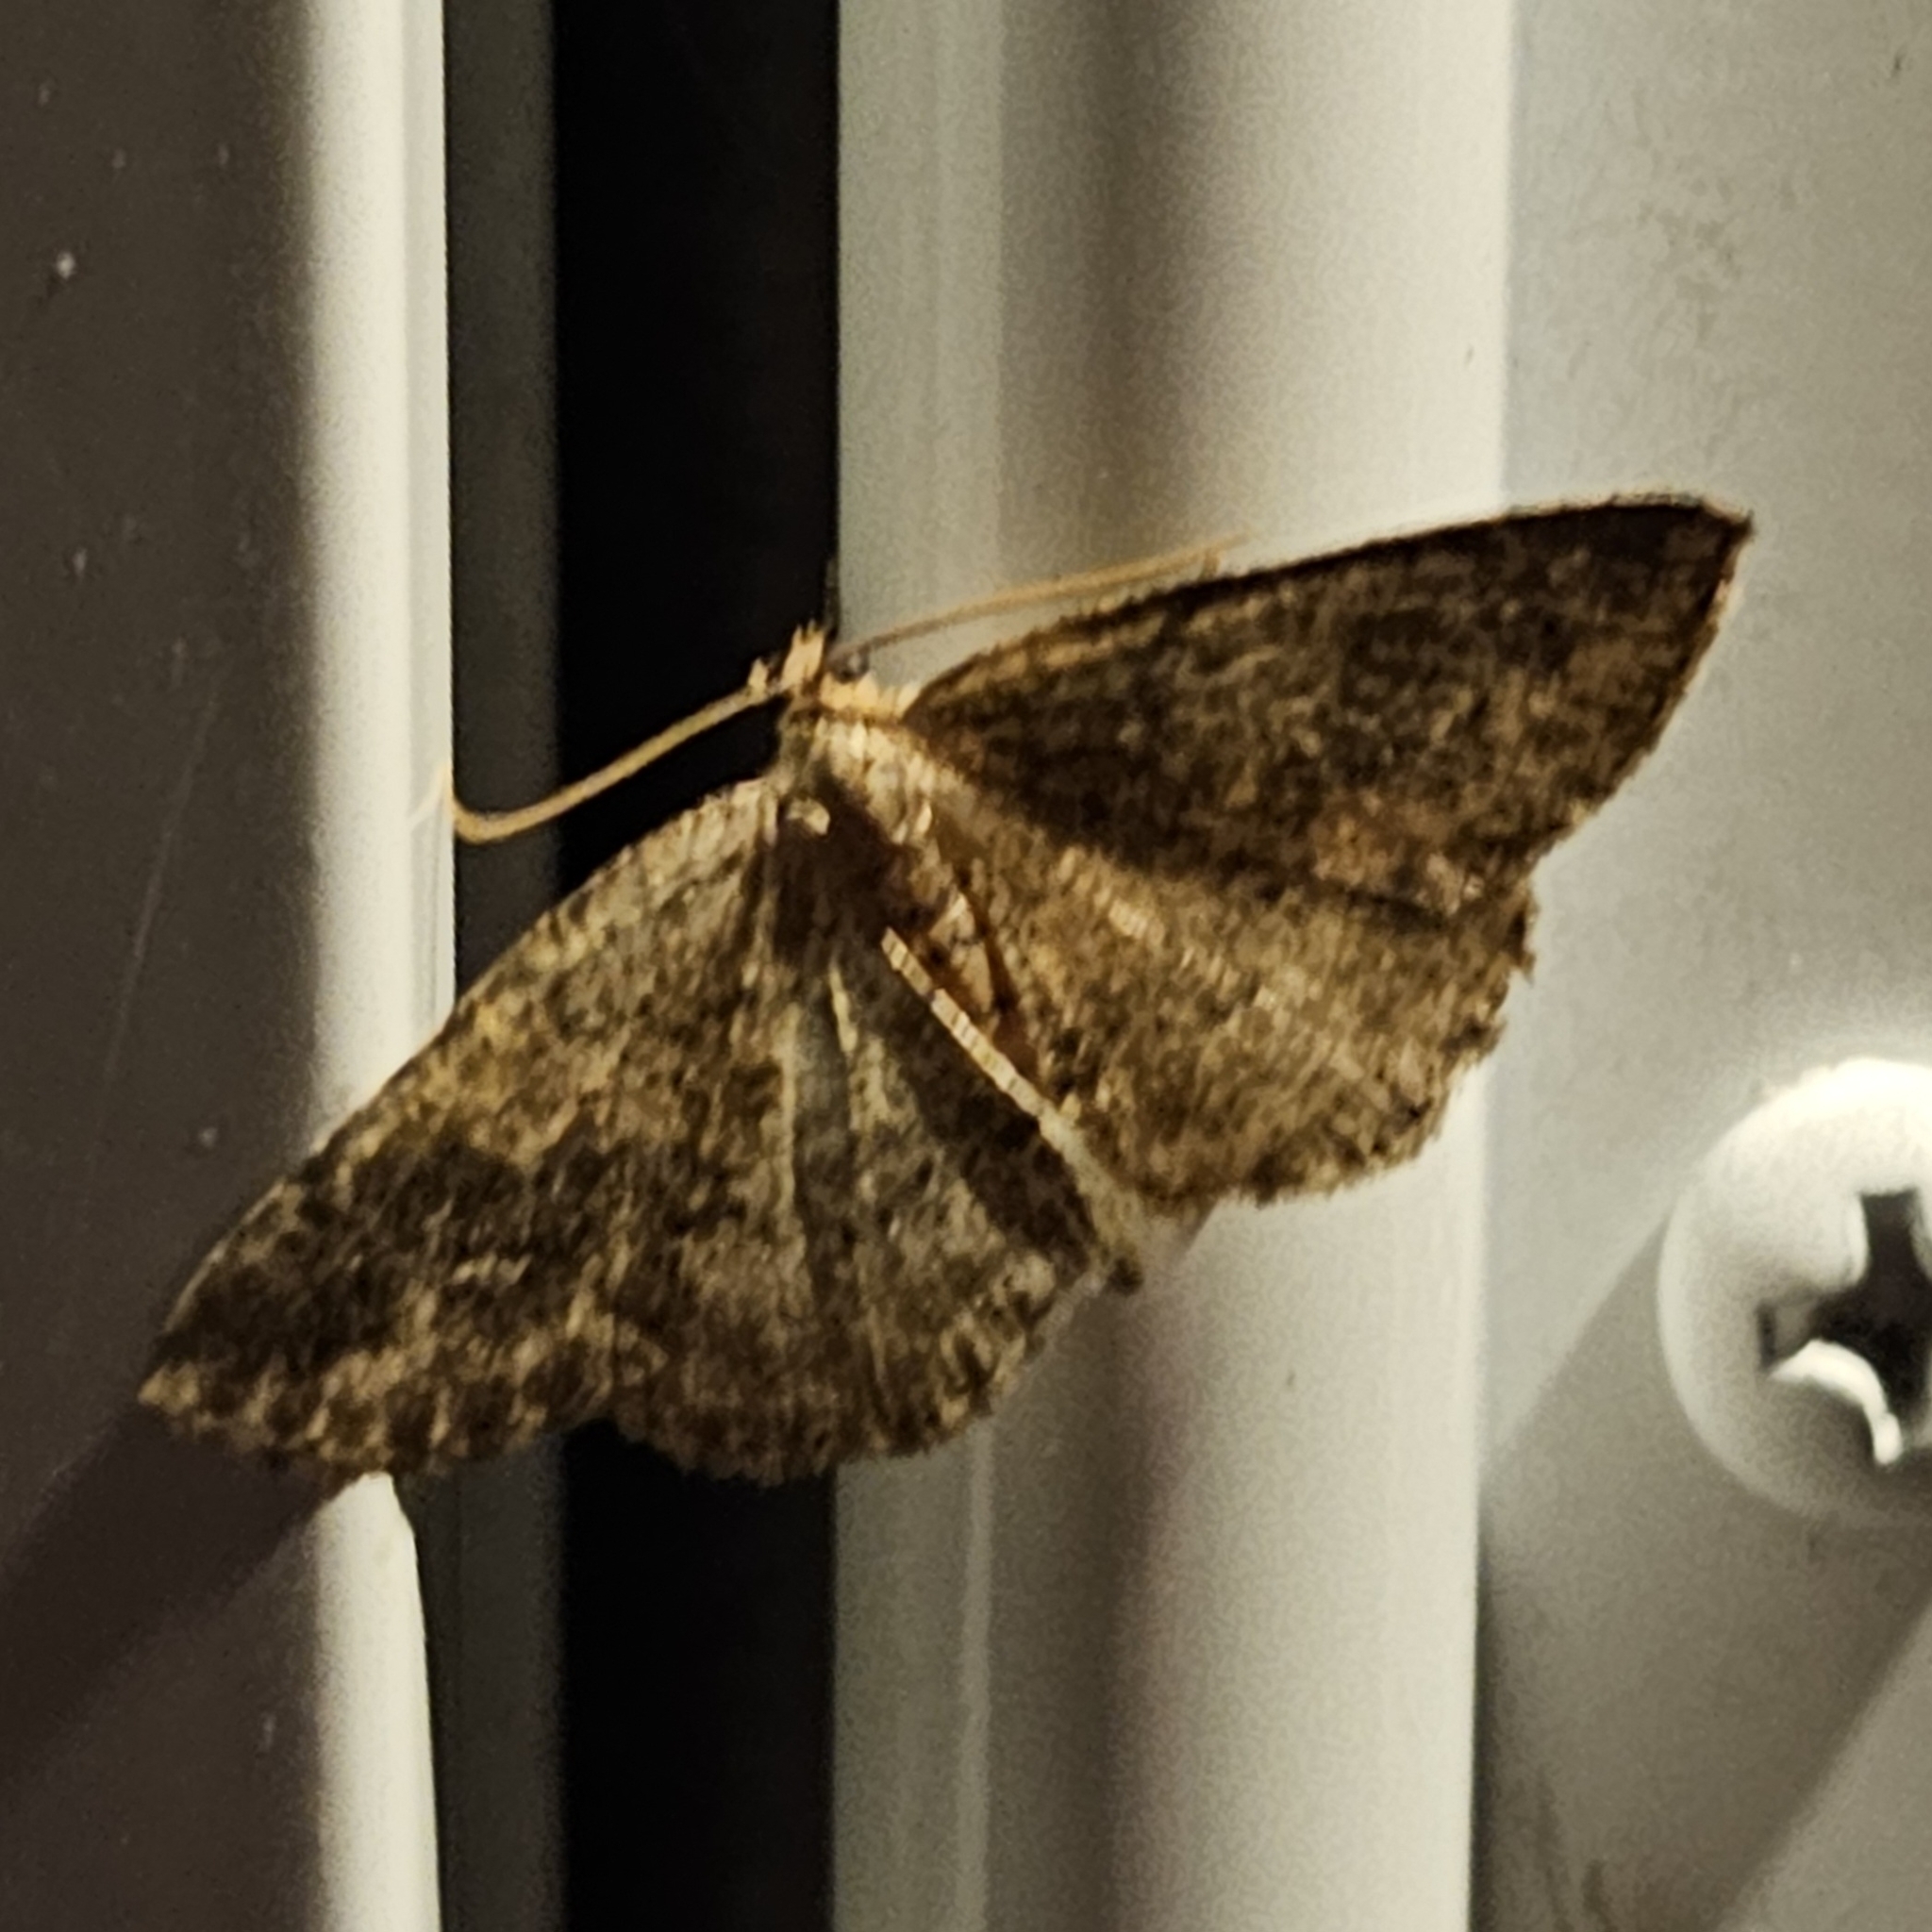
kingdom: Animalia
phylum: Arthropoda
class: Insecta
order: Lepidoptera
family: Geometridae
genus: Homochlodes
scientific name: Homochlodes fritillaria
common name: Pale homochlodes
